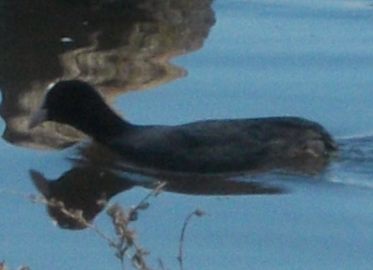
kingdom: Animalia
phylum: Chordata
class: Aves
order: Gruiformes
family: Rallidae
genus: Fulica
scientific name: Fulica atra
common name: Eurasian coot
